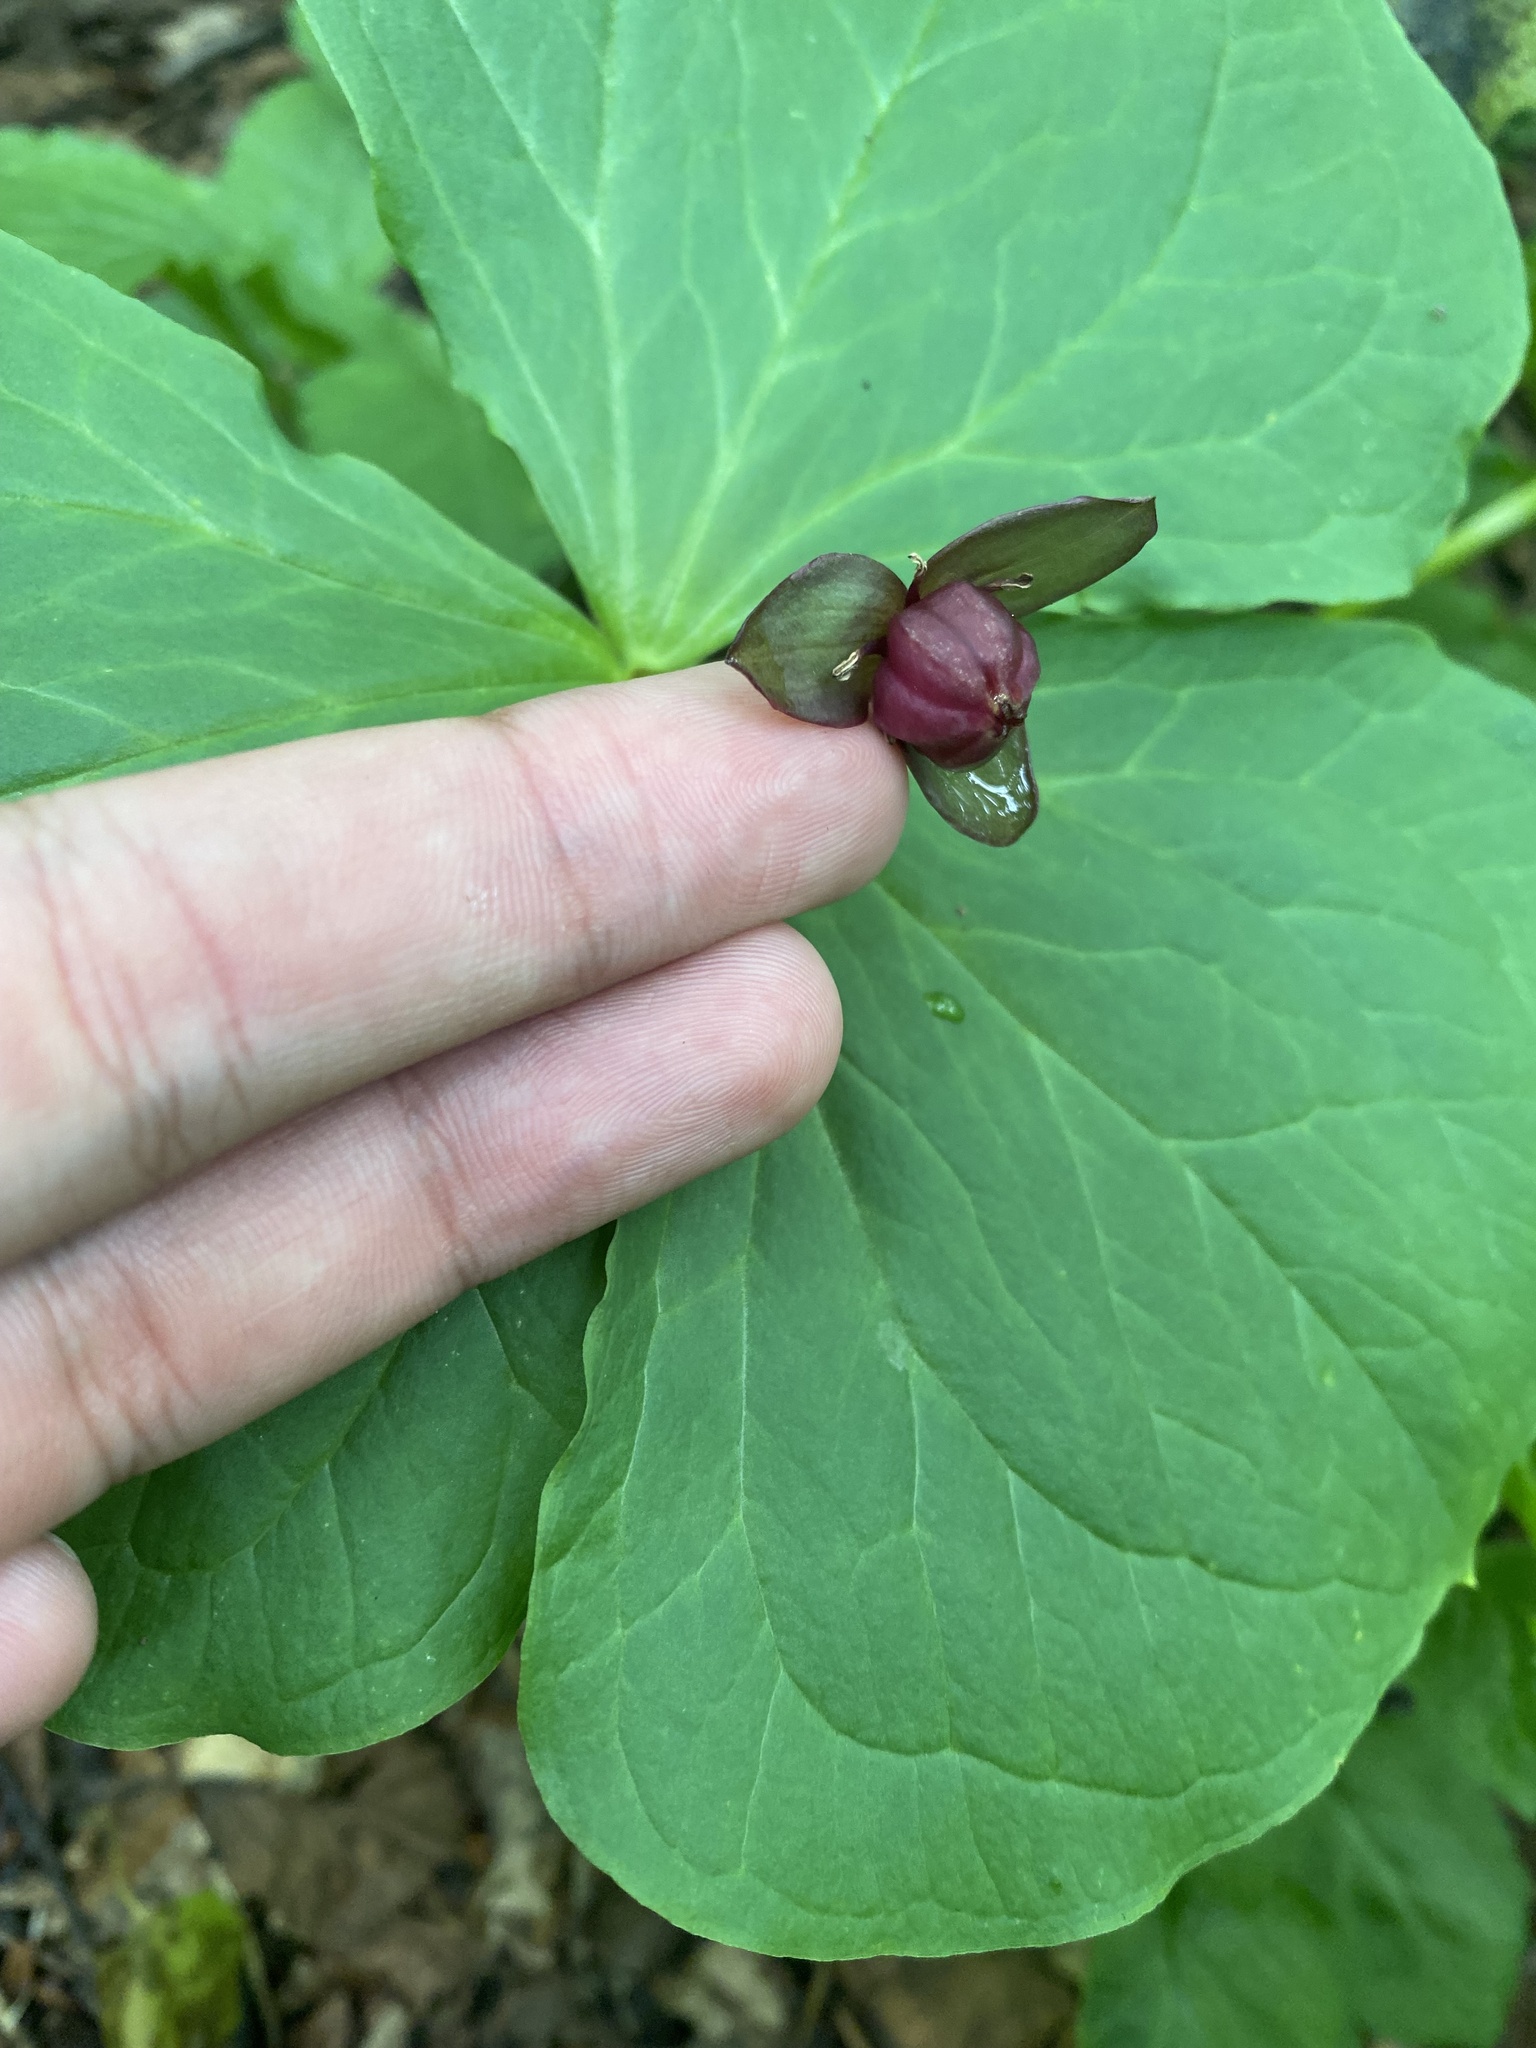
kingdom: Plantae
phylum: Tracheophyta
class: Liliopsida
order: Liliales
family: Melanthiaceae
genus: Trillium
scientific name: Trillium apetalon
